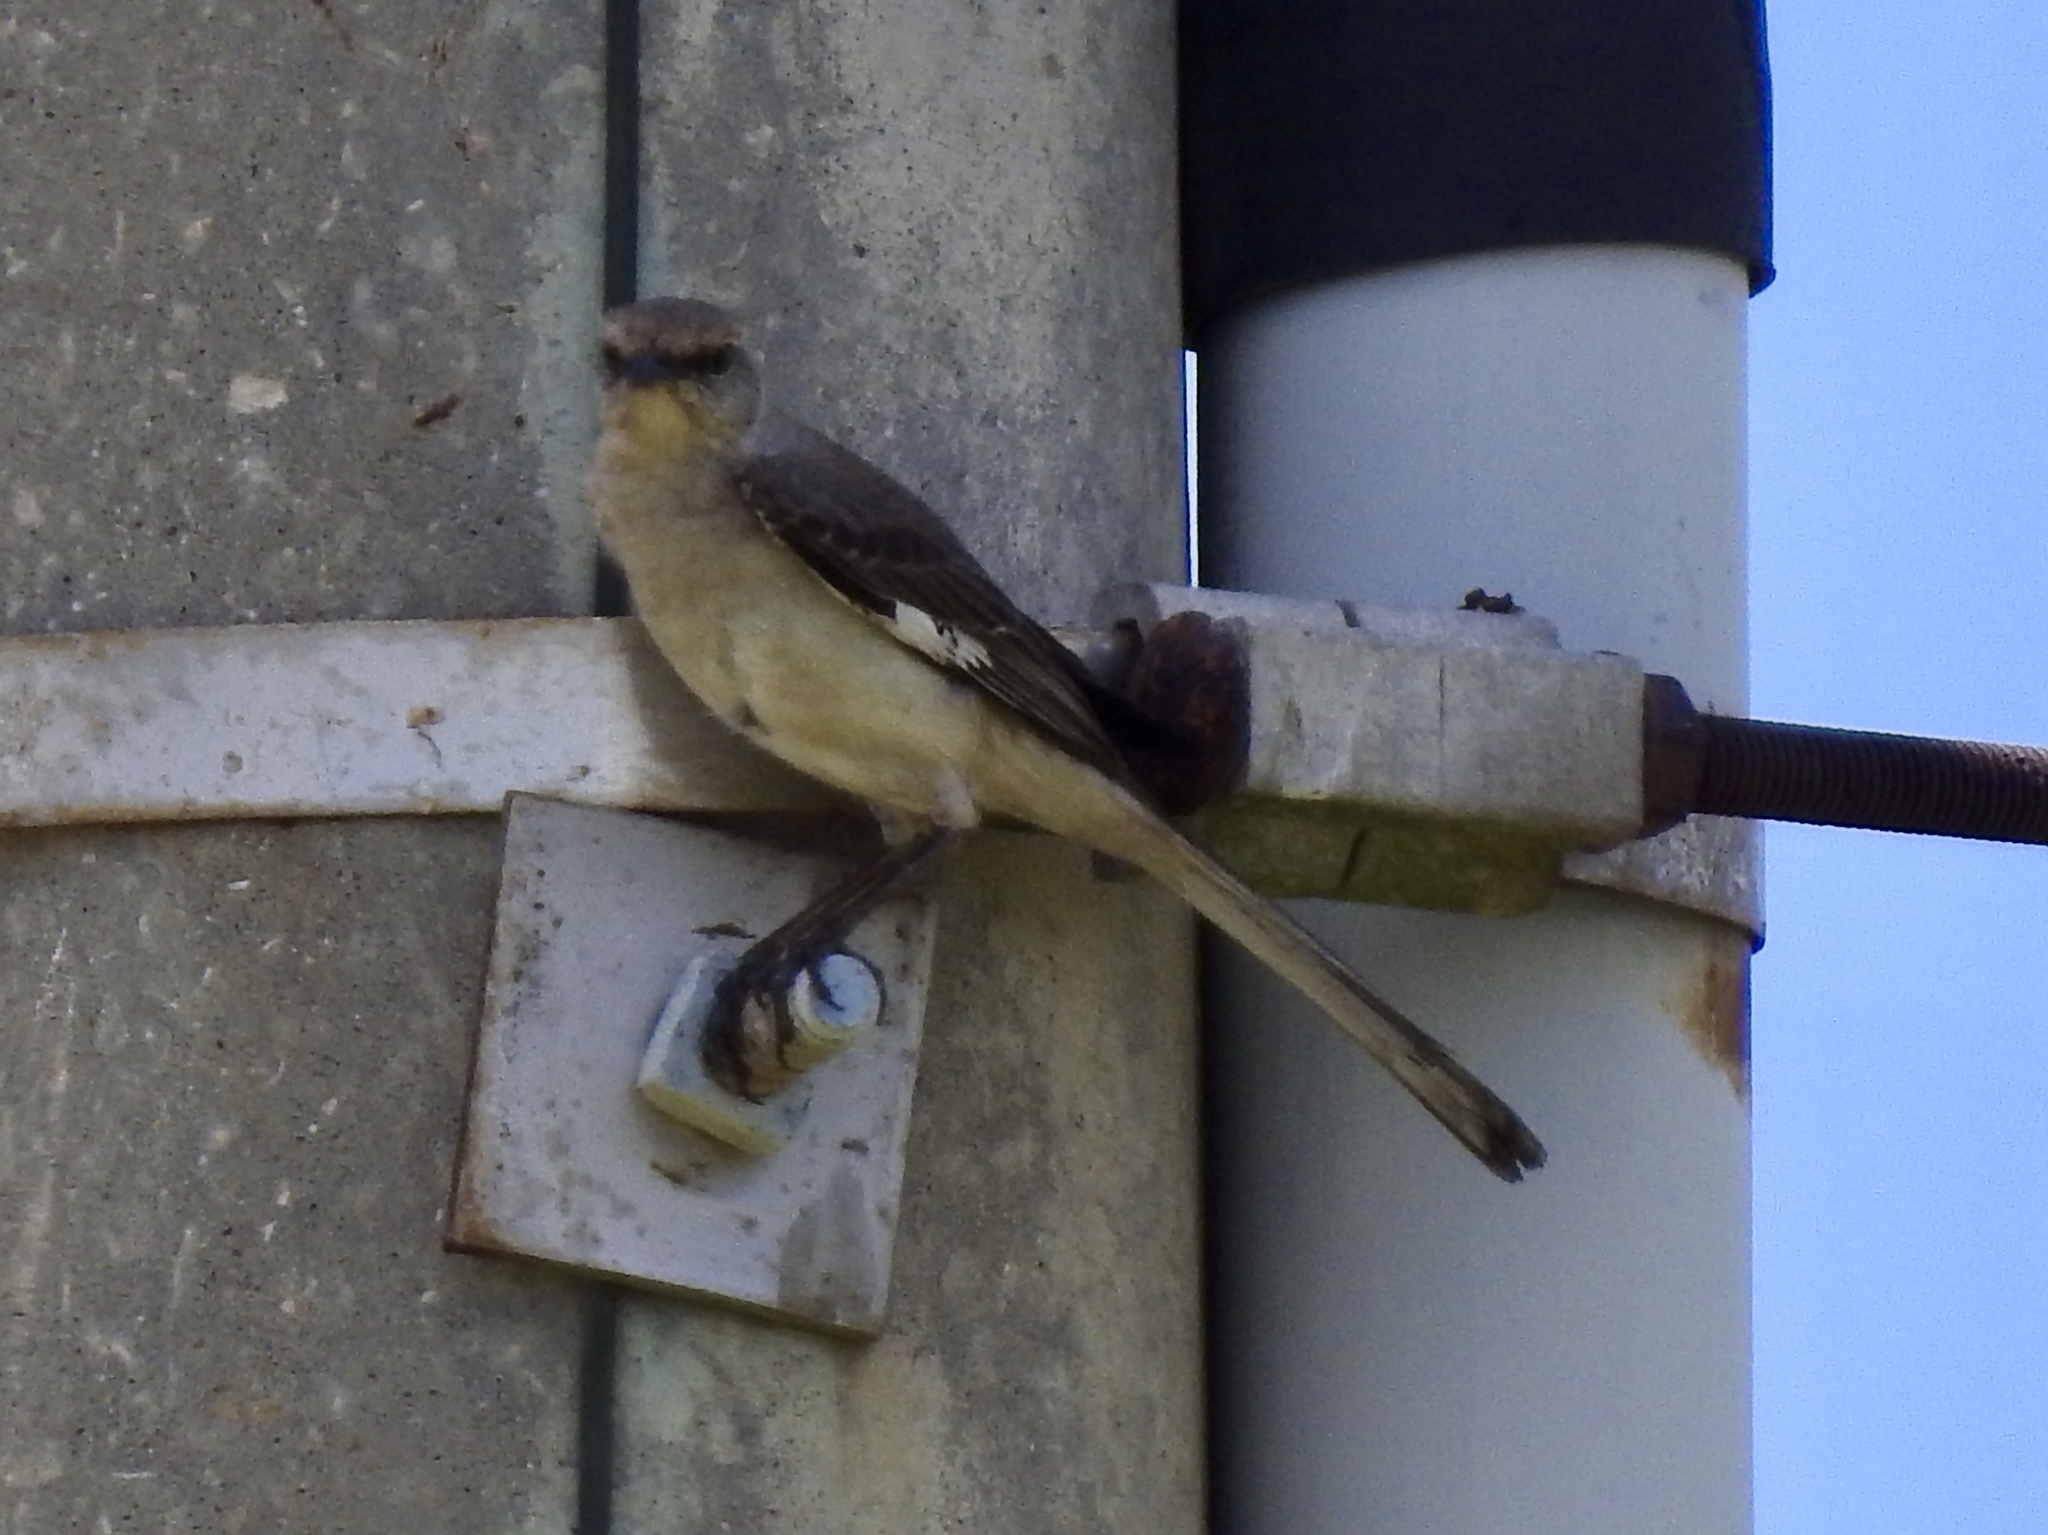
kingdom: Animalia
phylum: Chordata
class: Aves
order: Passeriformes
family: Mimidae
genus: Mimus
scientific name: Mimus polyglottos
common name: Northern mockingbird
